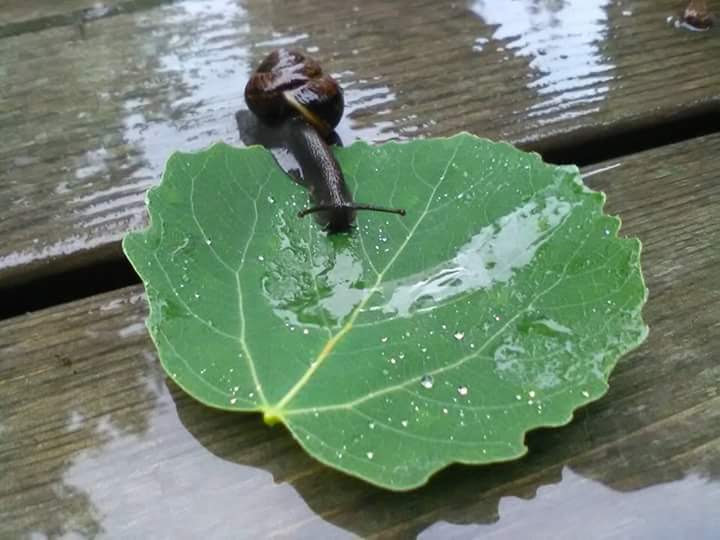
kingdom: Animalia
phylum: Mollusca
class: Gastropoda
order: Stylommatophora
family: Helicidae
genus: Arianta
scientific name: Arianta arbustorum
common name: Copse snail
